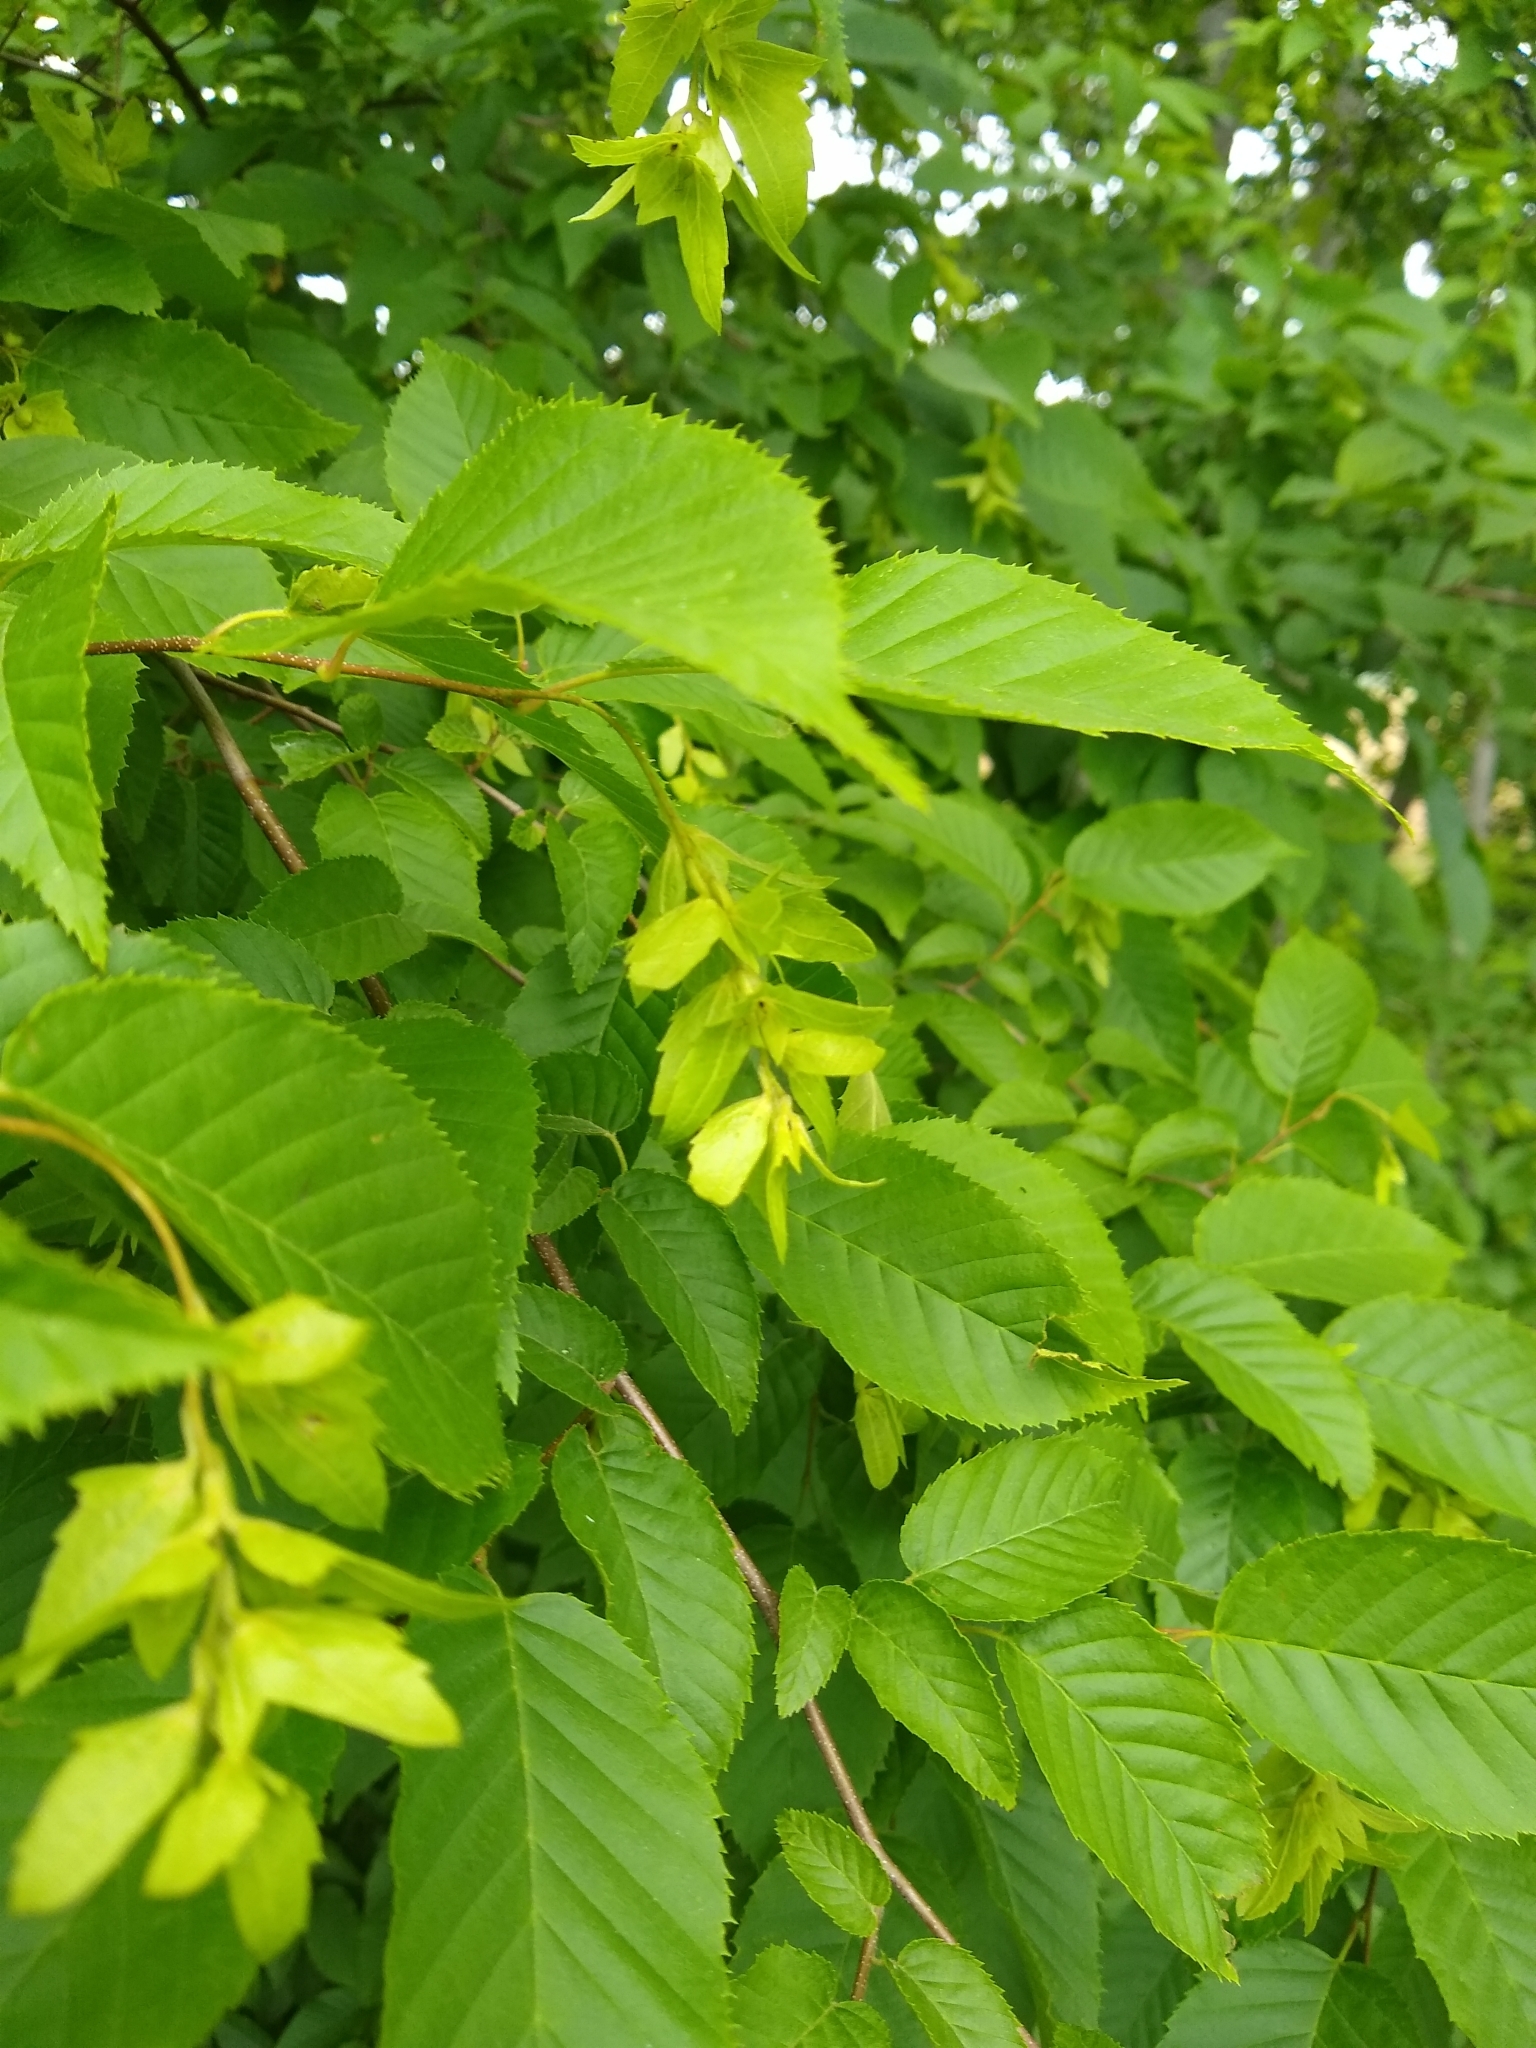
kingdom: Plantae
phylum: Tracheophyta
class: Magnoliopsida
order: Fagales
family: Betulaceae
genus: Carpinus
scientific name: Carpinus caroliniana
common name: American hornbeam
